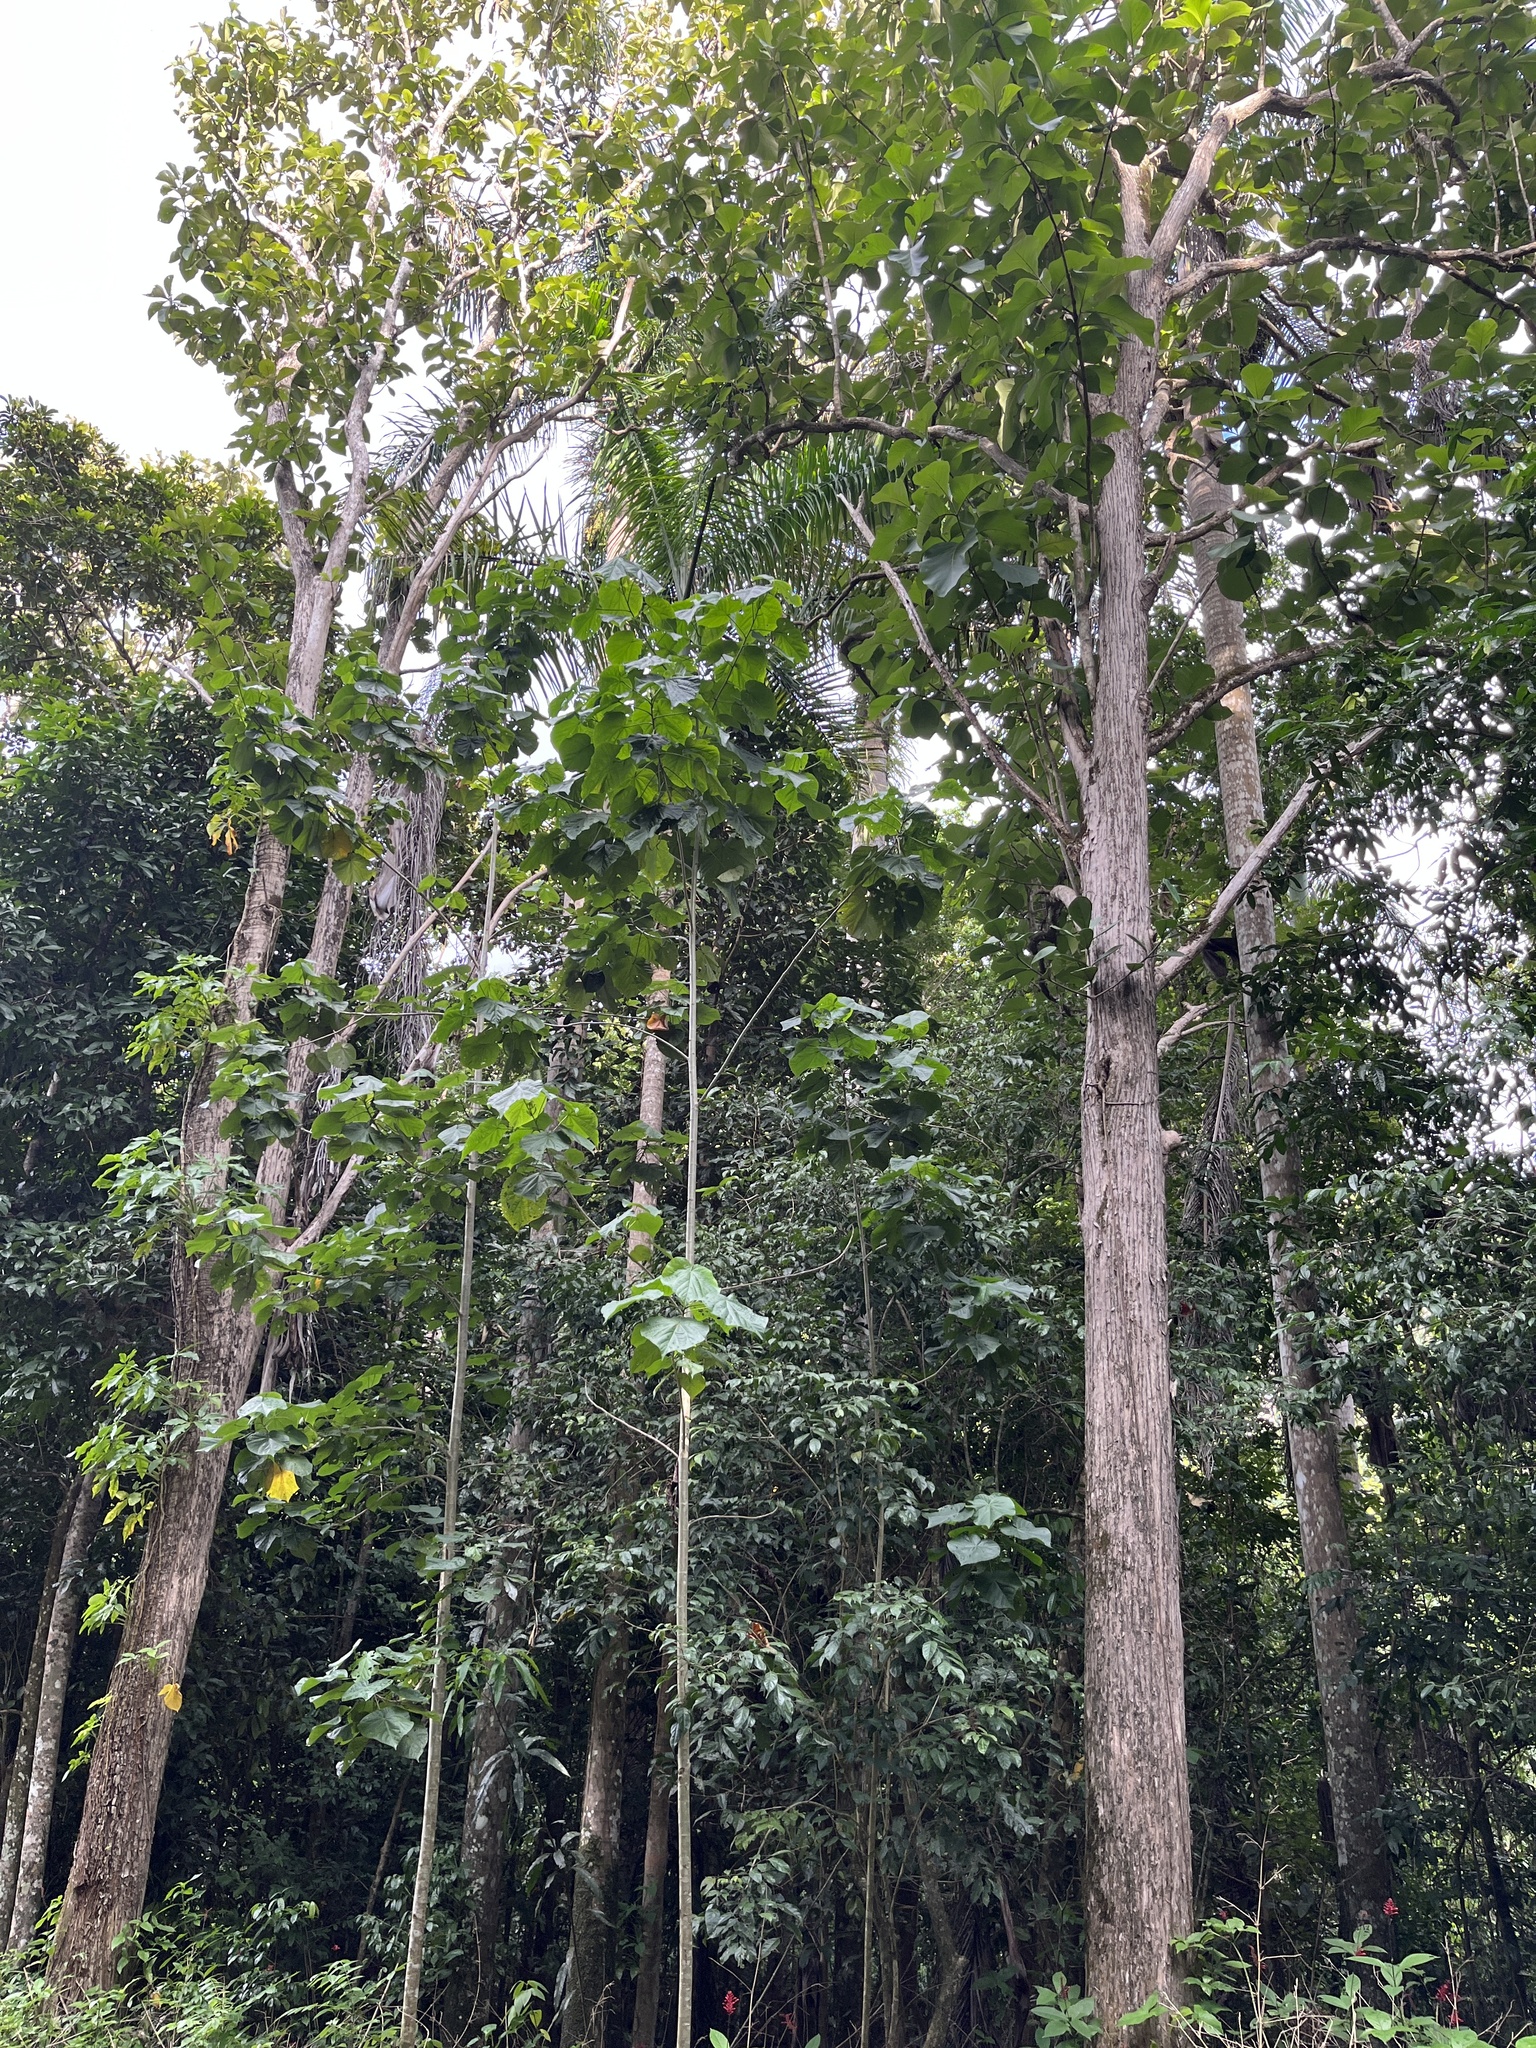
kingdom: Plantae
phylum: Tracheophyta
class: Magnoliopsida
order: Lamiales
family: Lamiaceae
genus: Tectona
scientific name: Tectona grandis
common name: Teak
